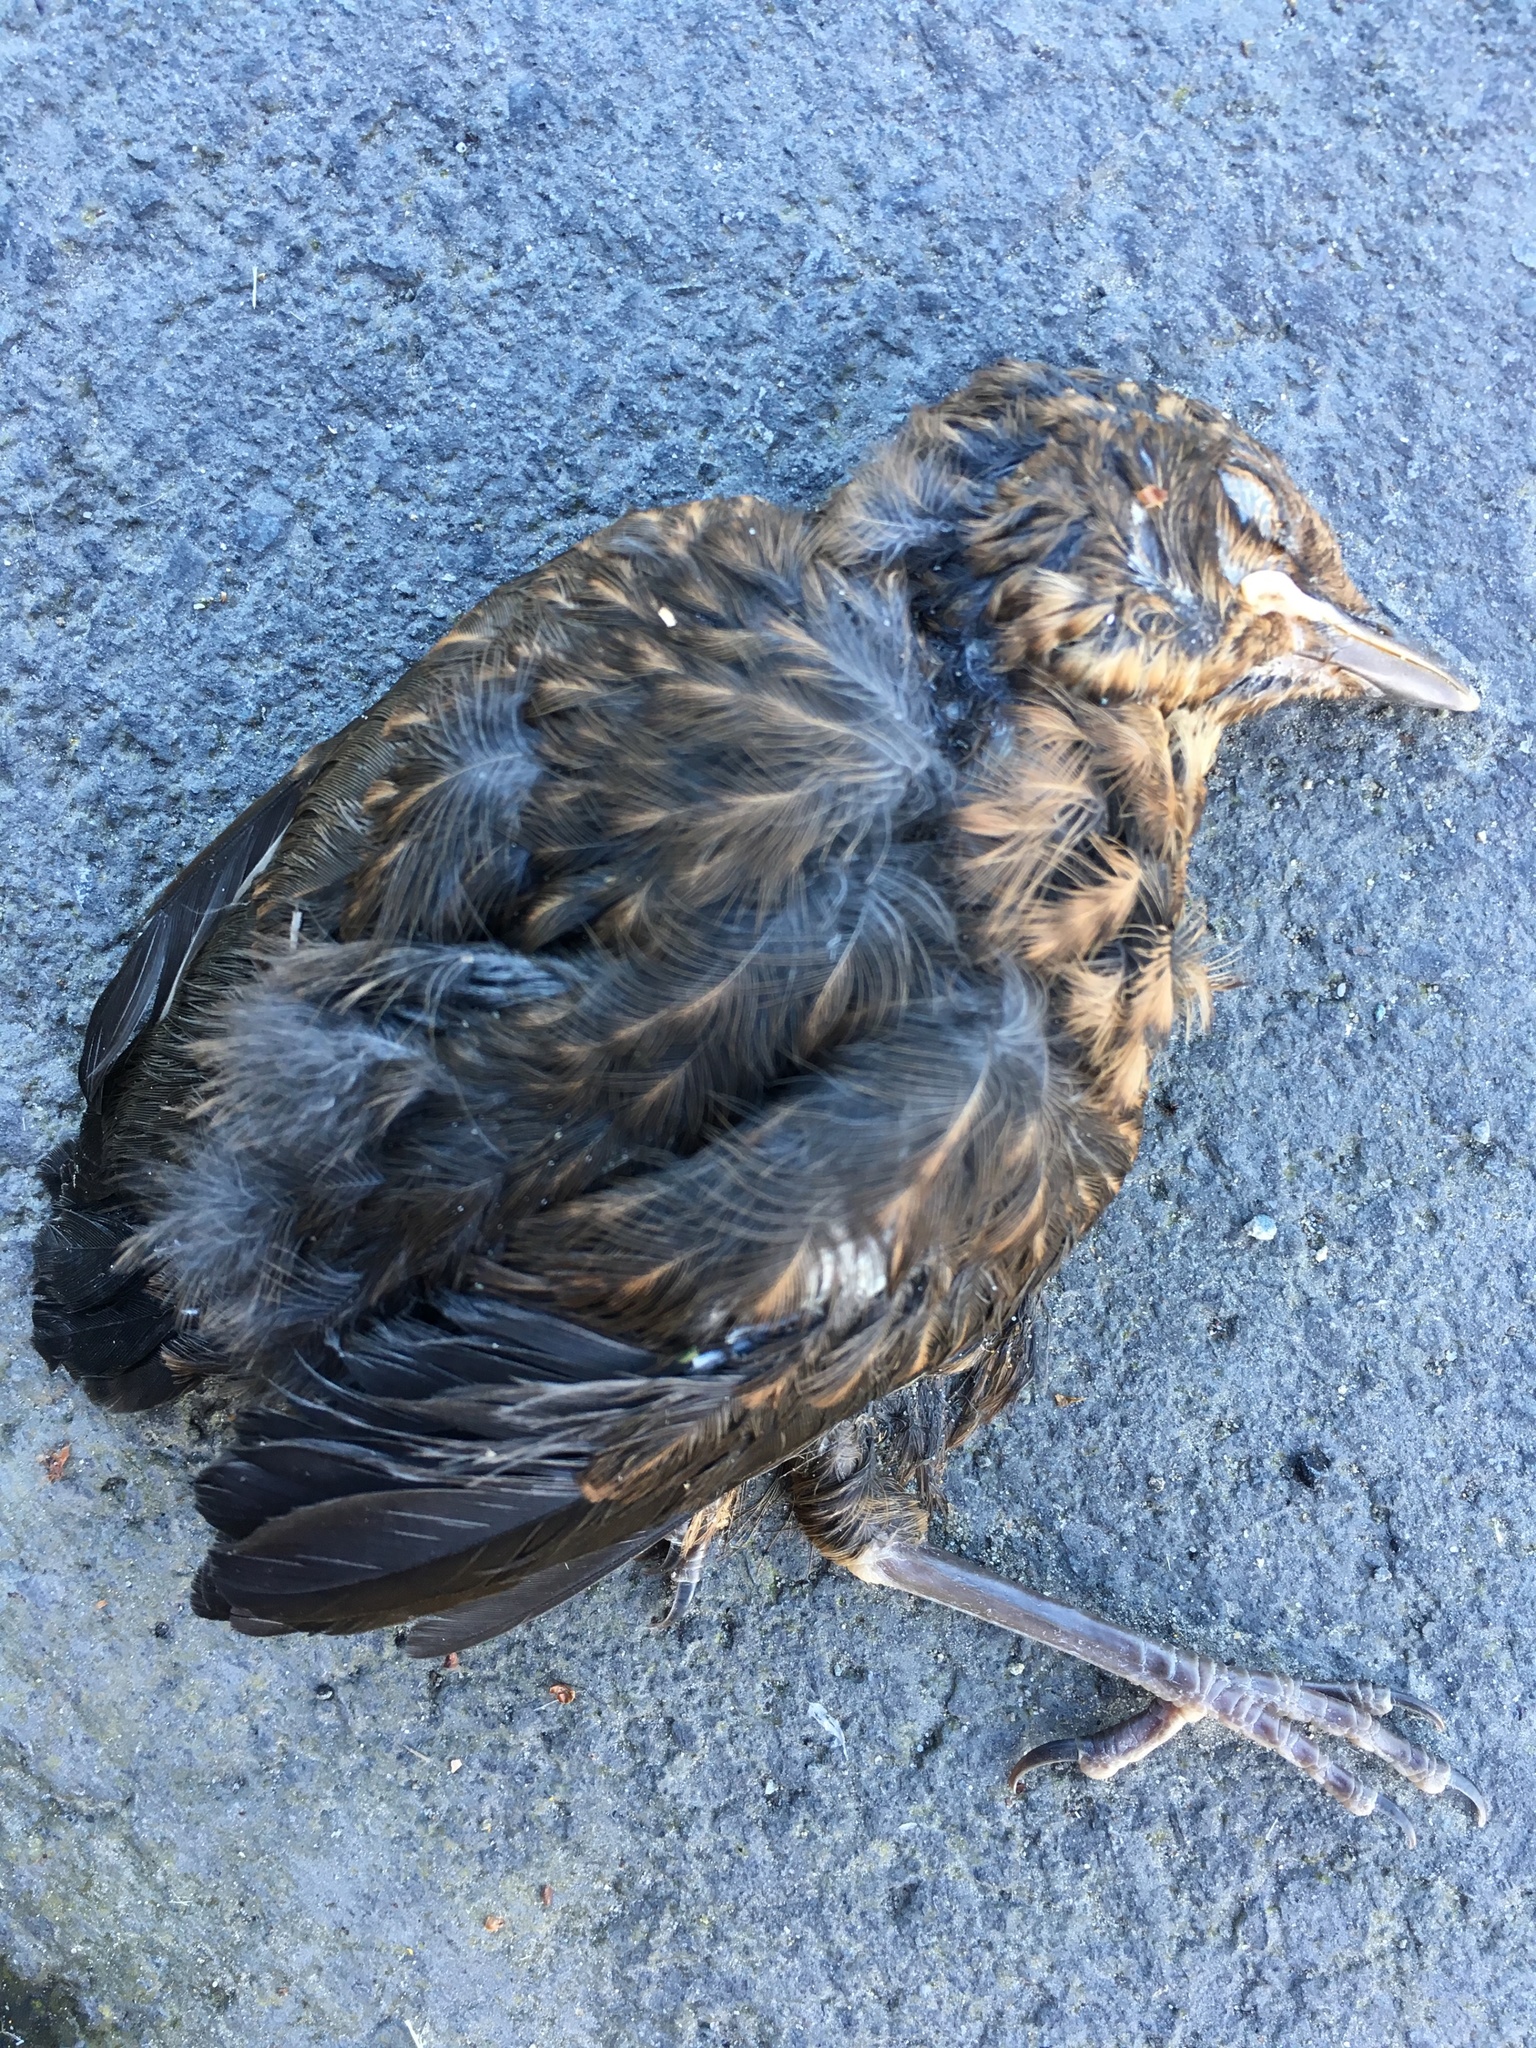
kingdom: Animalia
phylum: Chordata
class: Aves
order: Passeriformes
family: Turdidae
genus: Turdus
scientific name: Turdus merula
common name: Common blackbird
